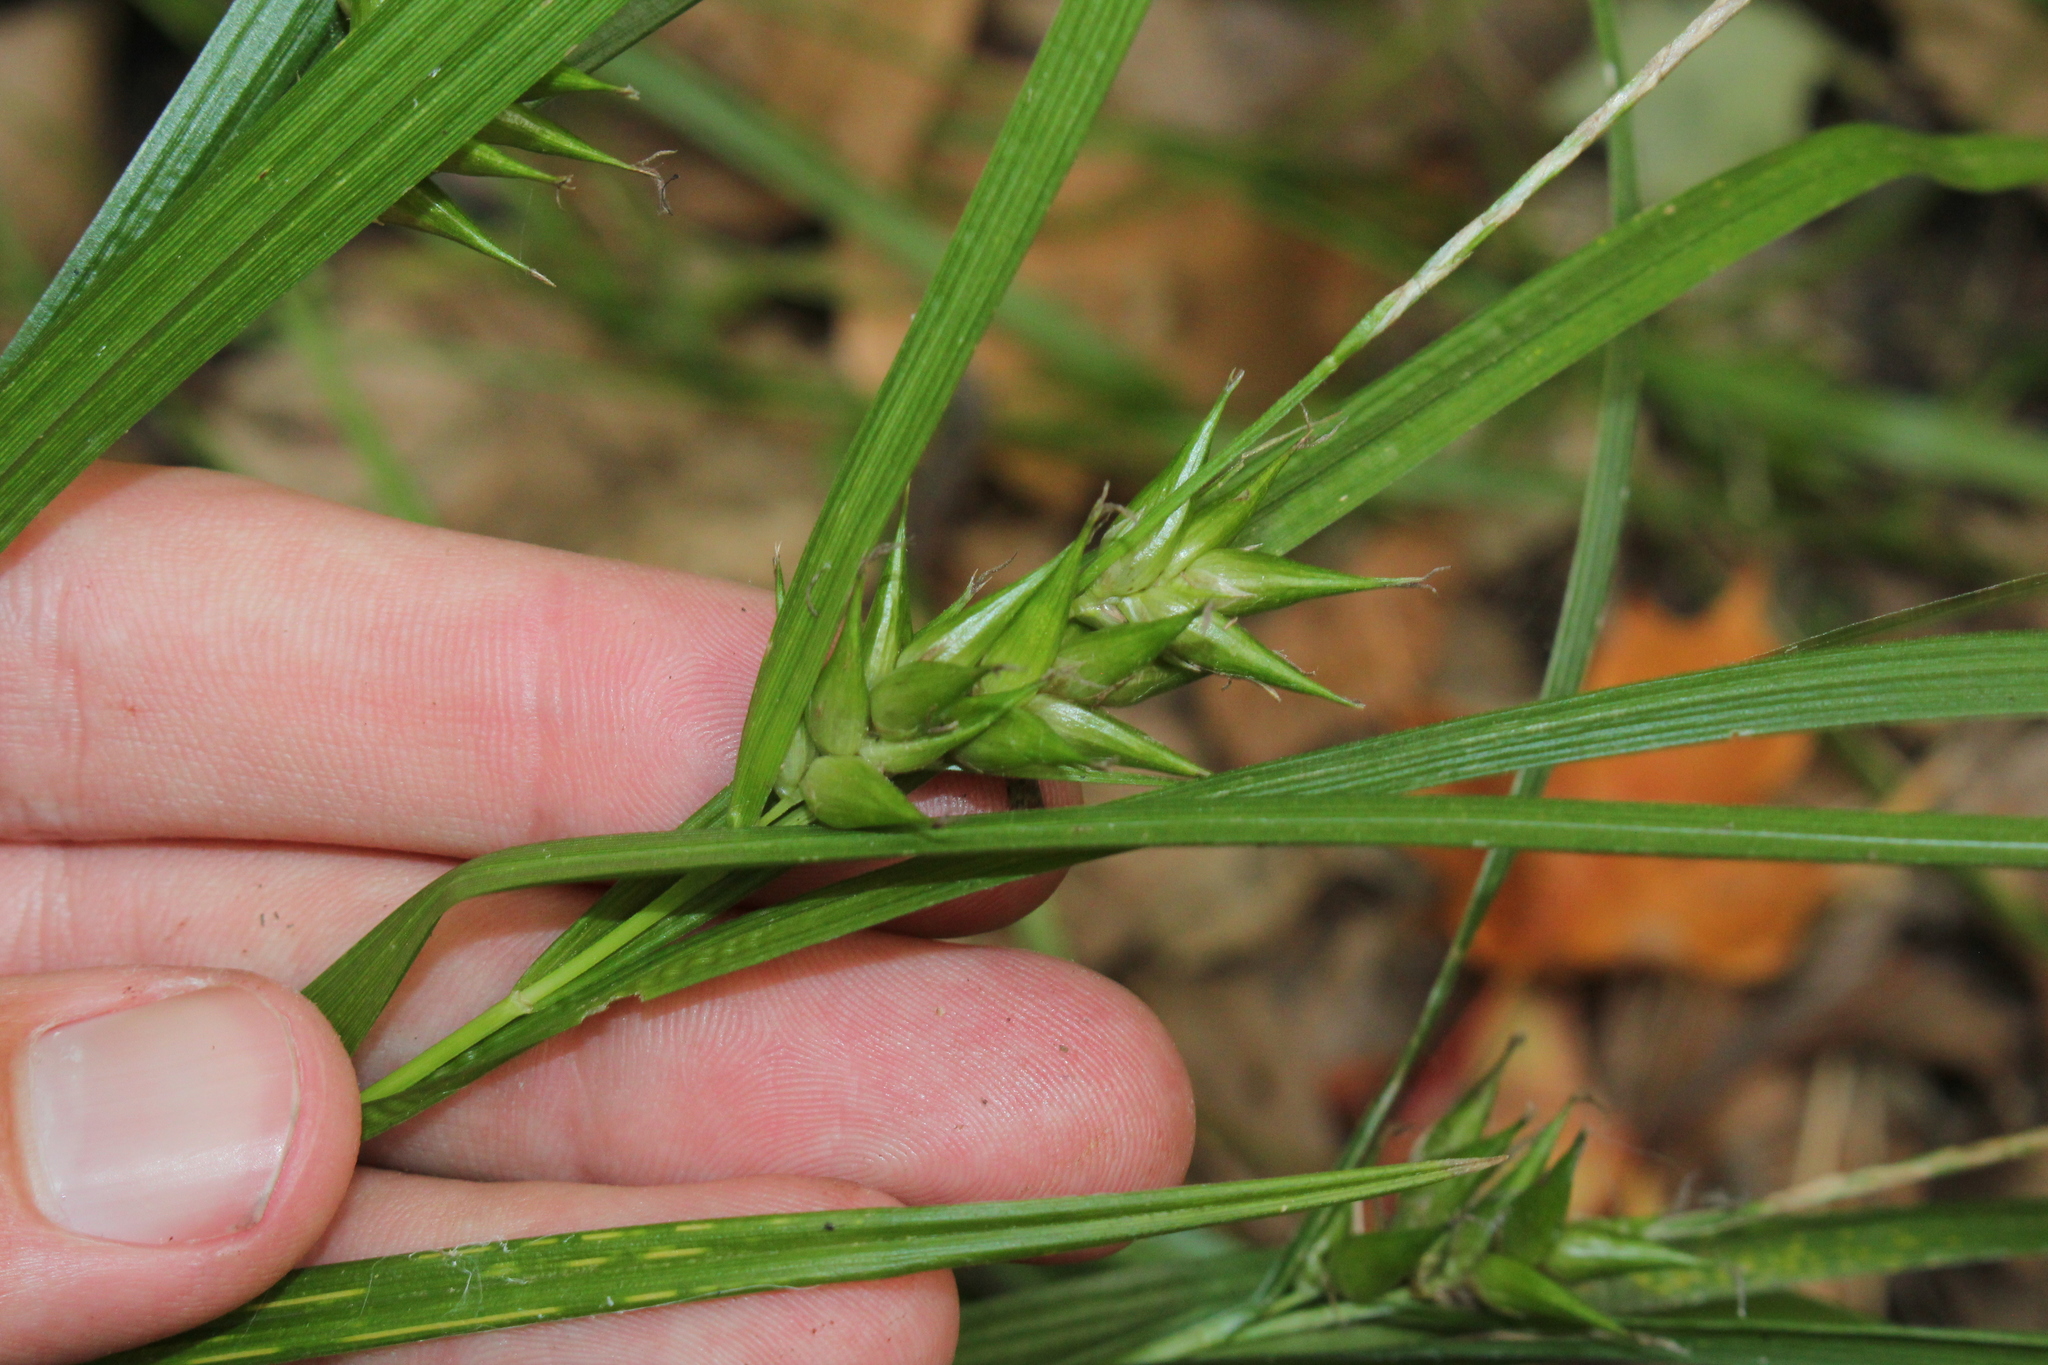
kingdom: Plantae
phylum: Tracheophyta
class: Liliopsida
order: Poales
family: Cyperaceae
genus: Carex
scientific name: Carex intumescens
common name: Greater bladder sedge
